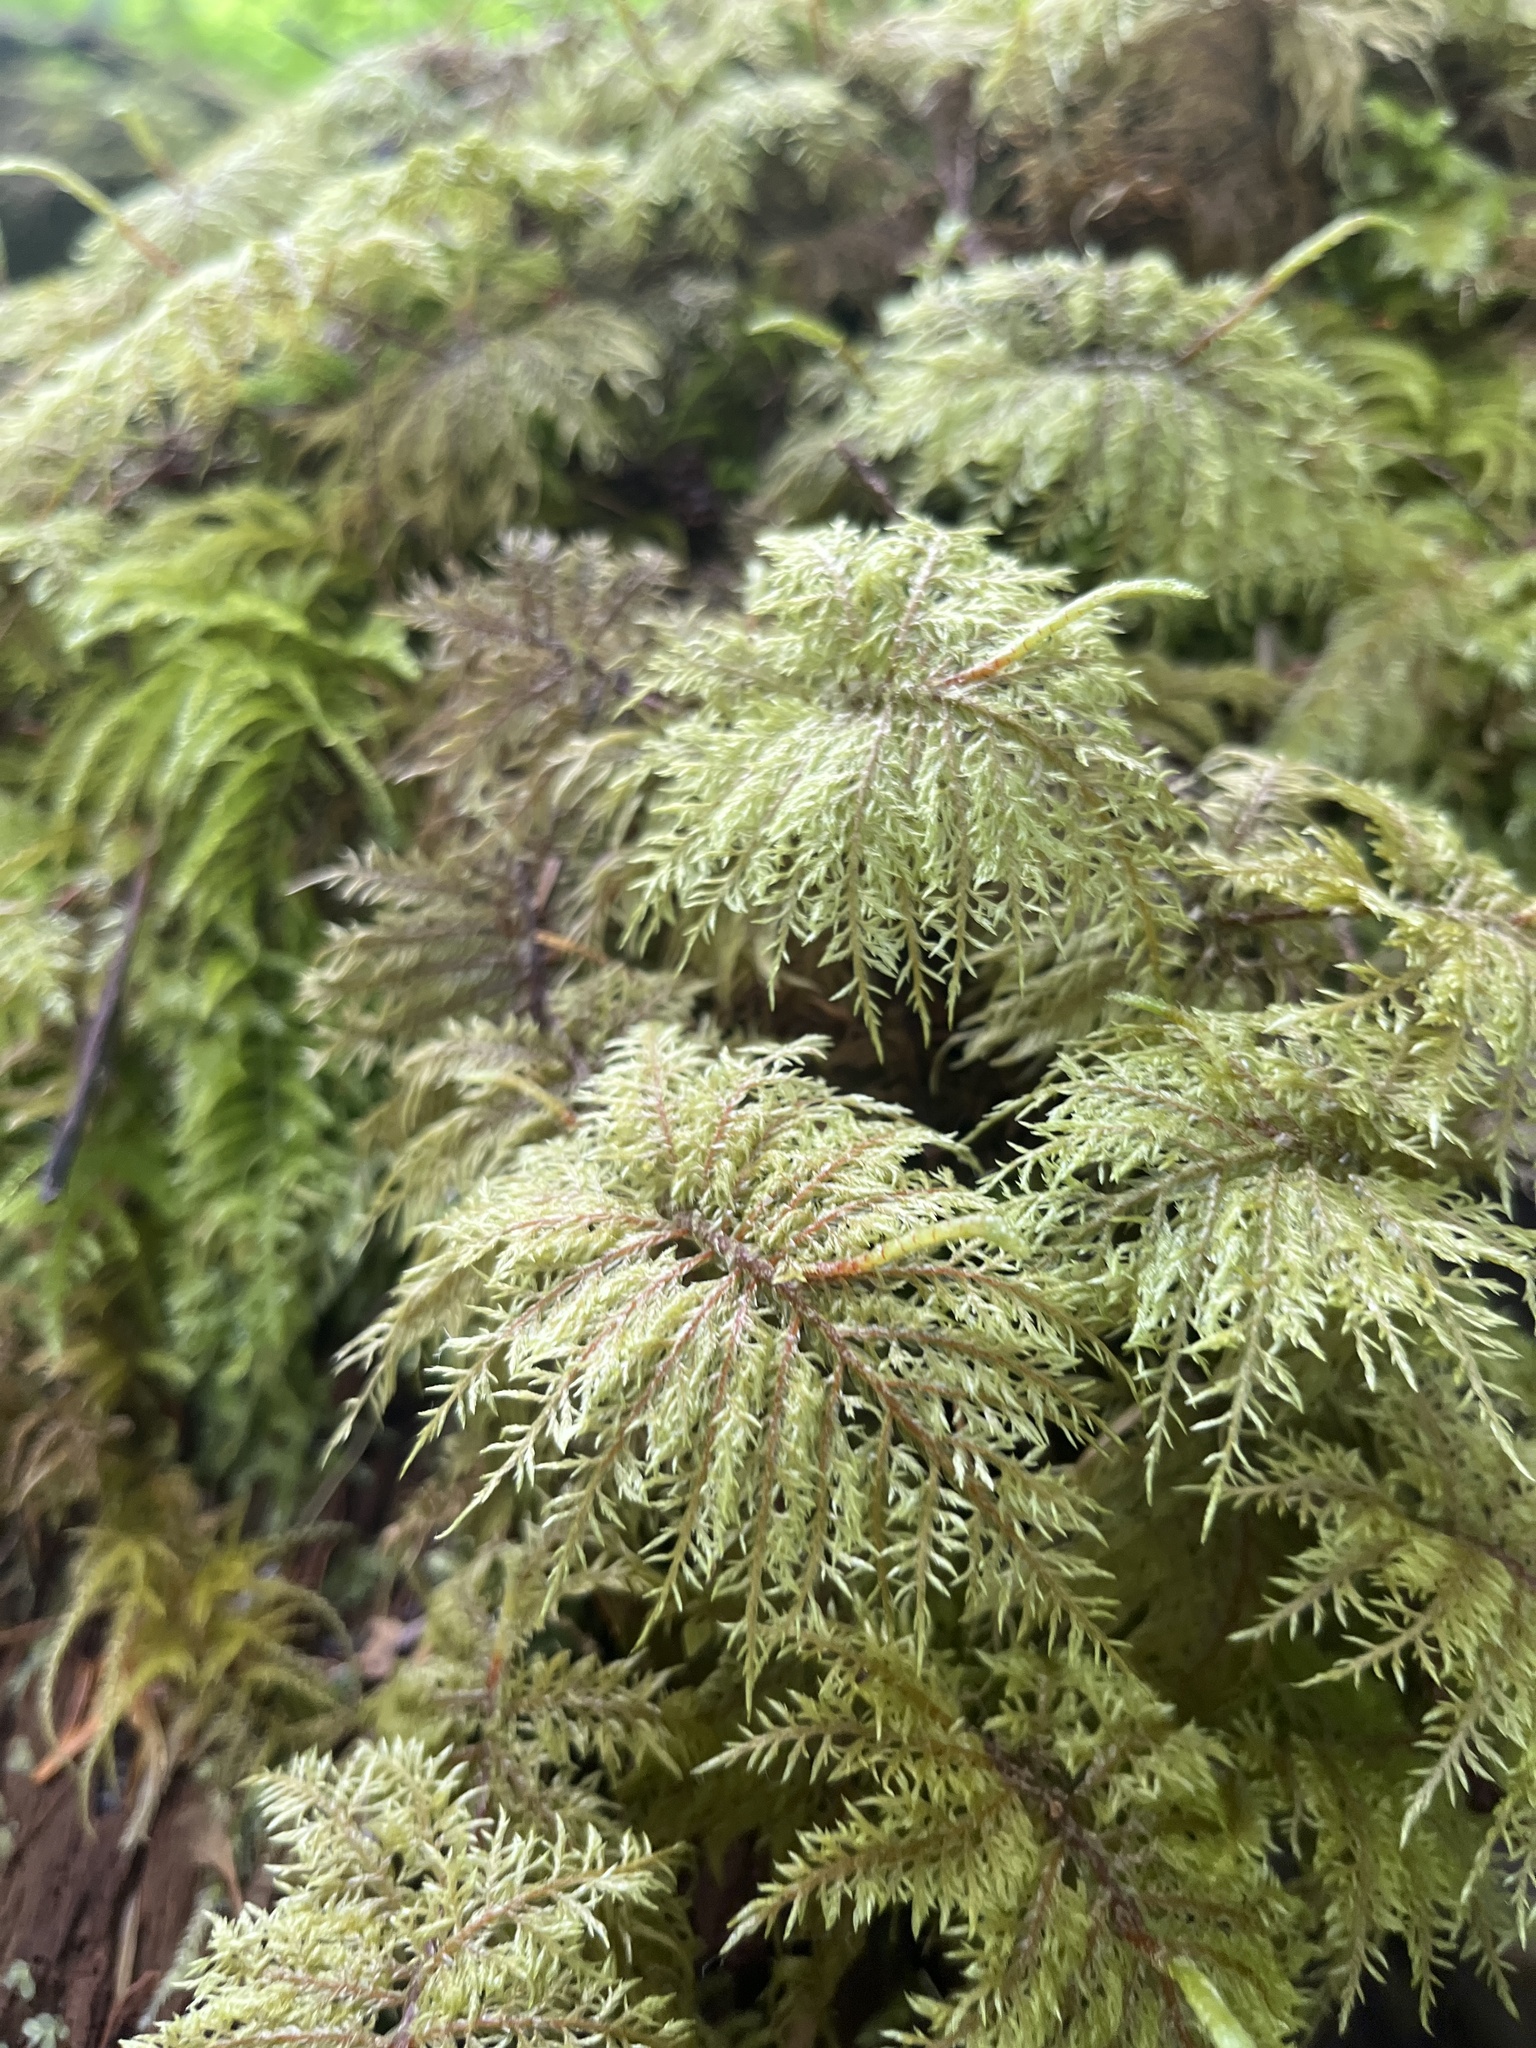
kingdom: Plantae
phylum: Bryophyta
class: Bryopsida
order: Hypnales
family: Hylocomiaceae
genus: Hylocomium
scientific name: Hylocomium splendens
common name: Stairstep moss
